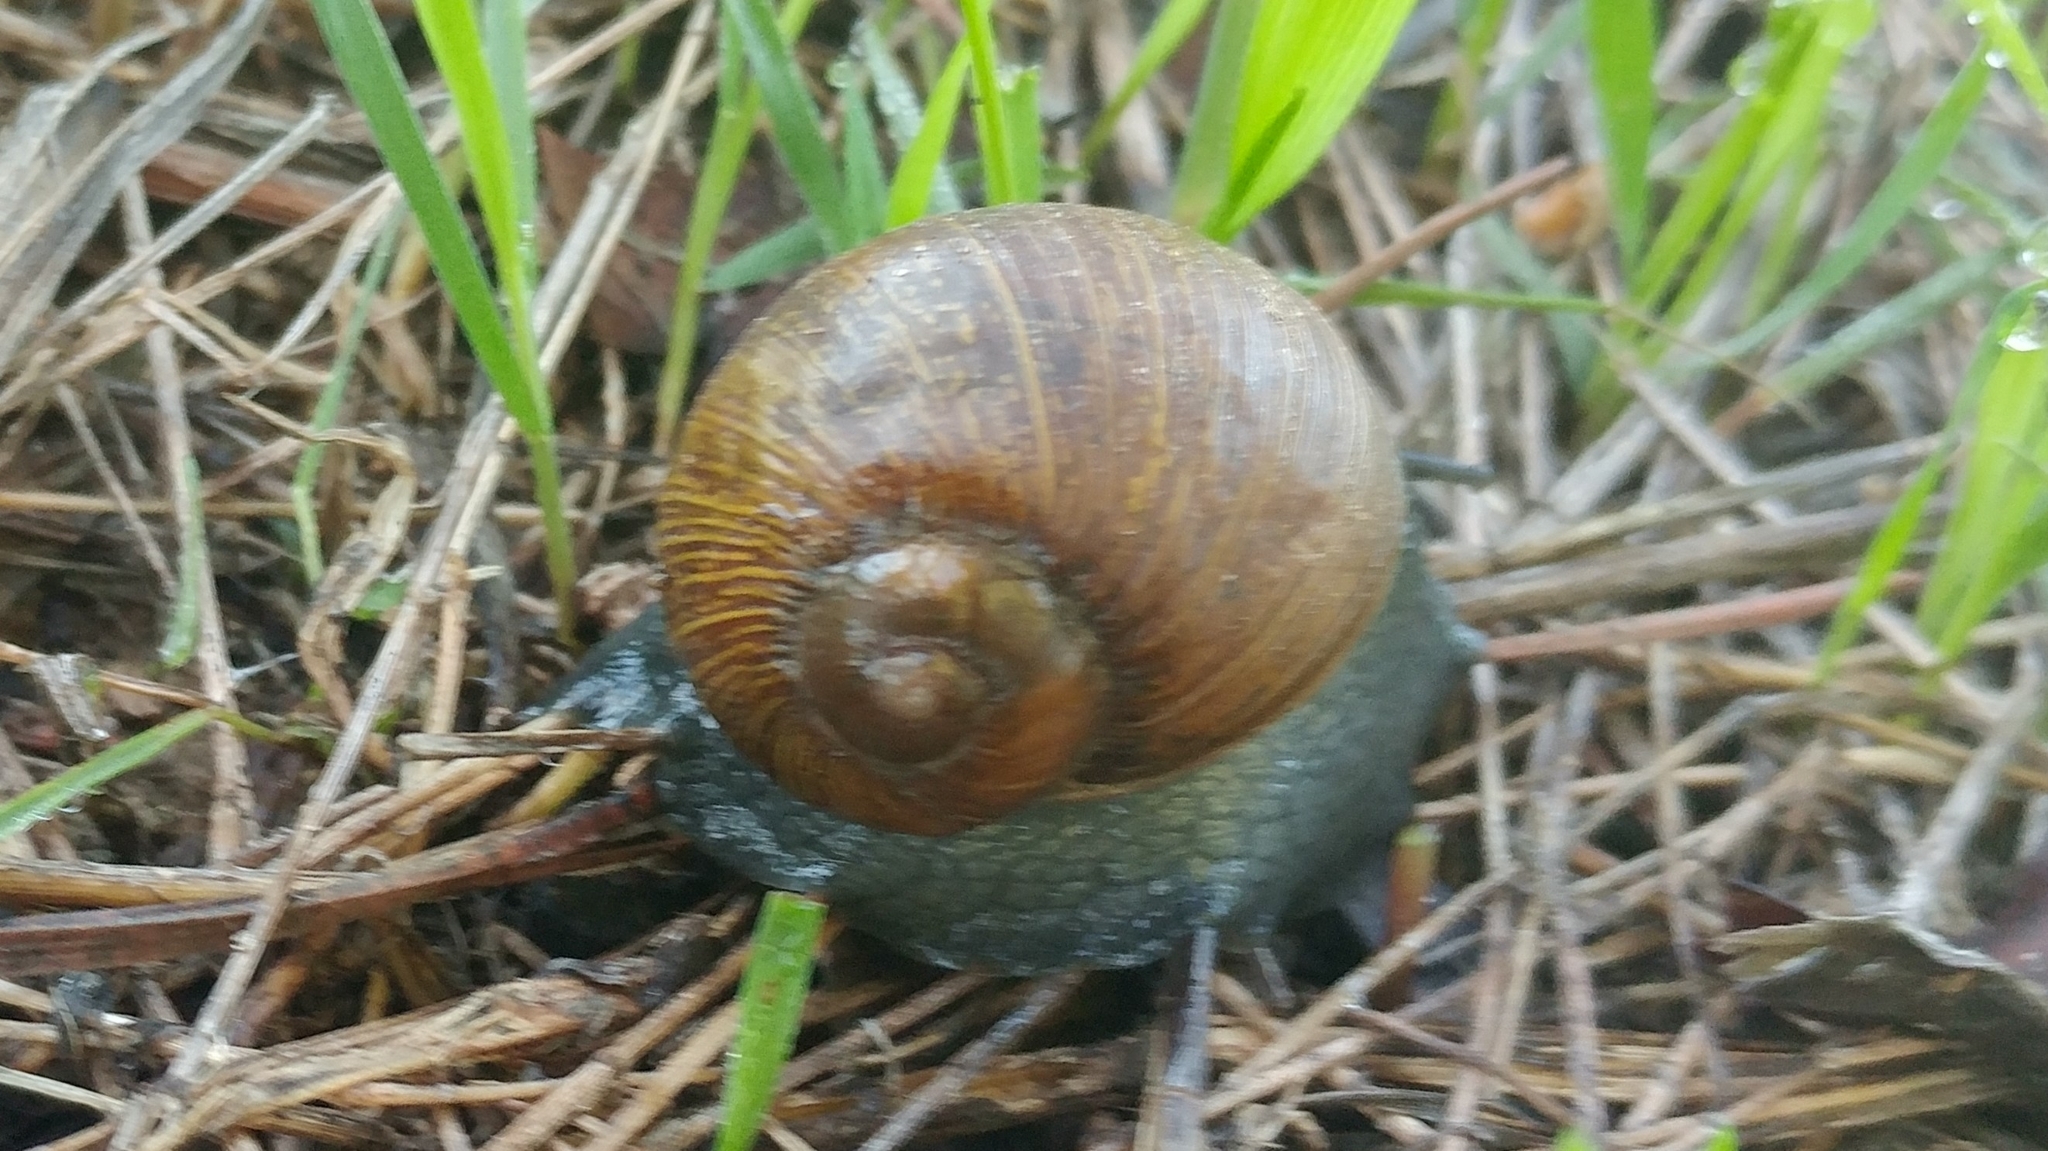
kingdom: Animalia
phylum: Mollusca
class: Gastropoda
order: Stylommatophora
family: Helicidae
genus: Cantareus
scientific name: Cantareus apertus
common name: Green gardensnail
